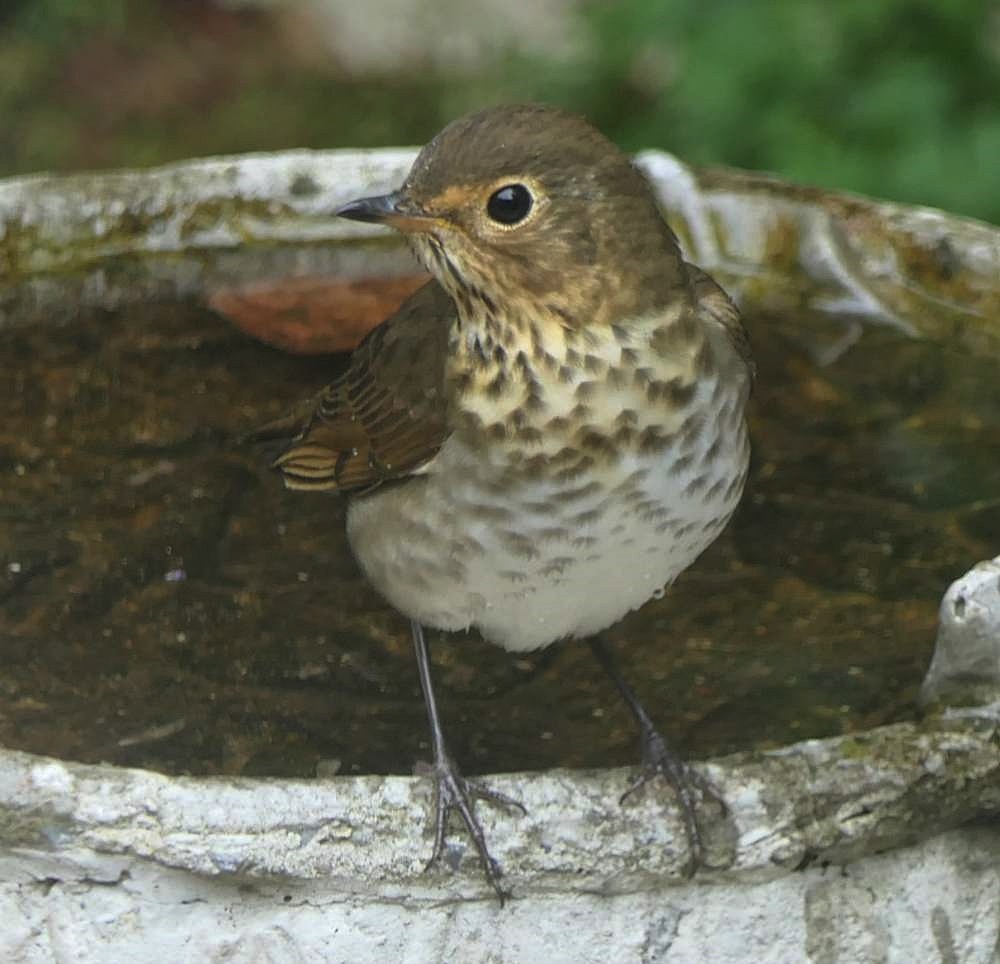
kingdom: Animalia
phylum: Chordata
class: Aves
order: Passeriformes
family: Turdidae
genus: Catharus
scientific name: Catharus ustulatus
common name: Swainson's thrush
